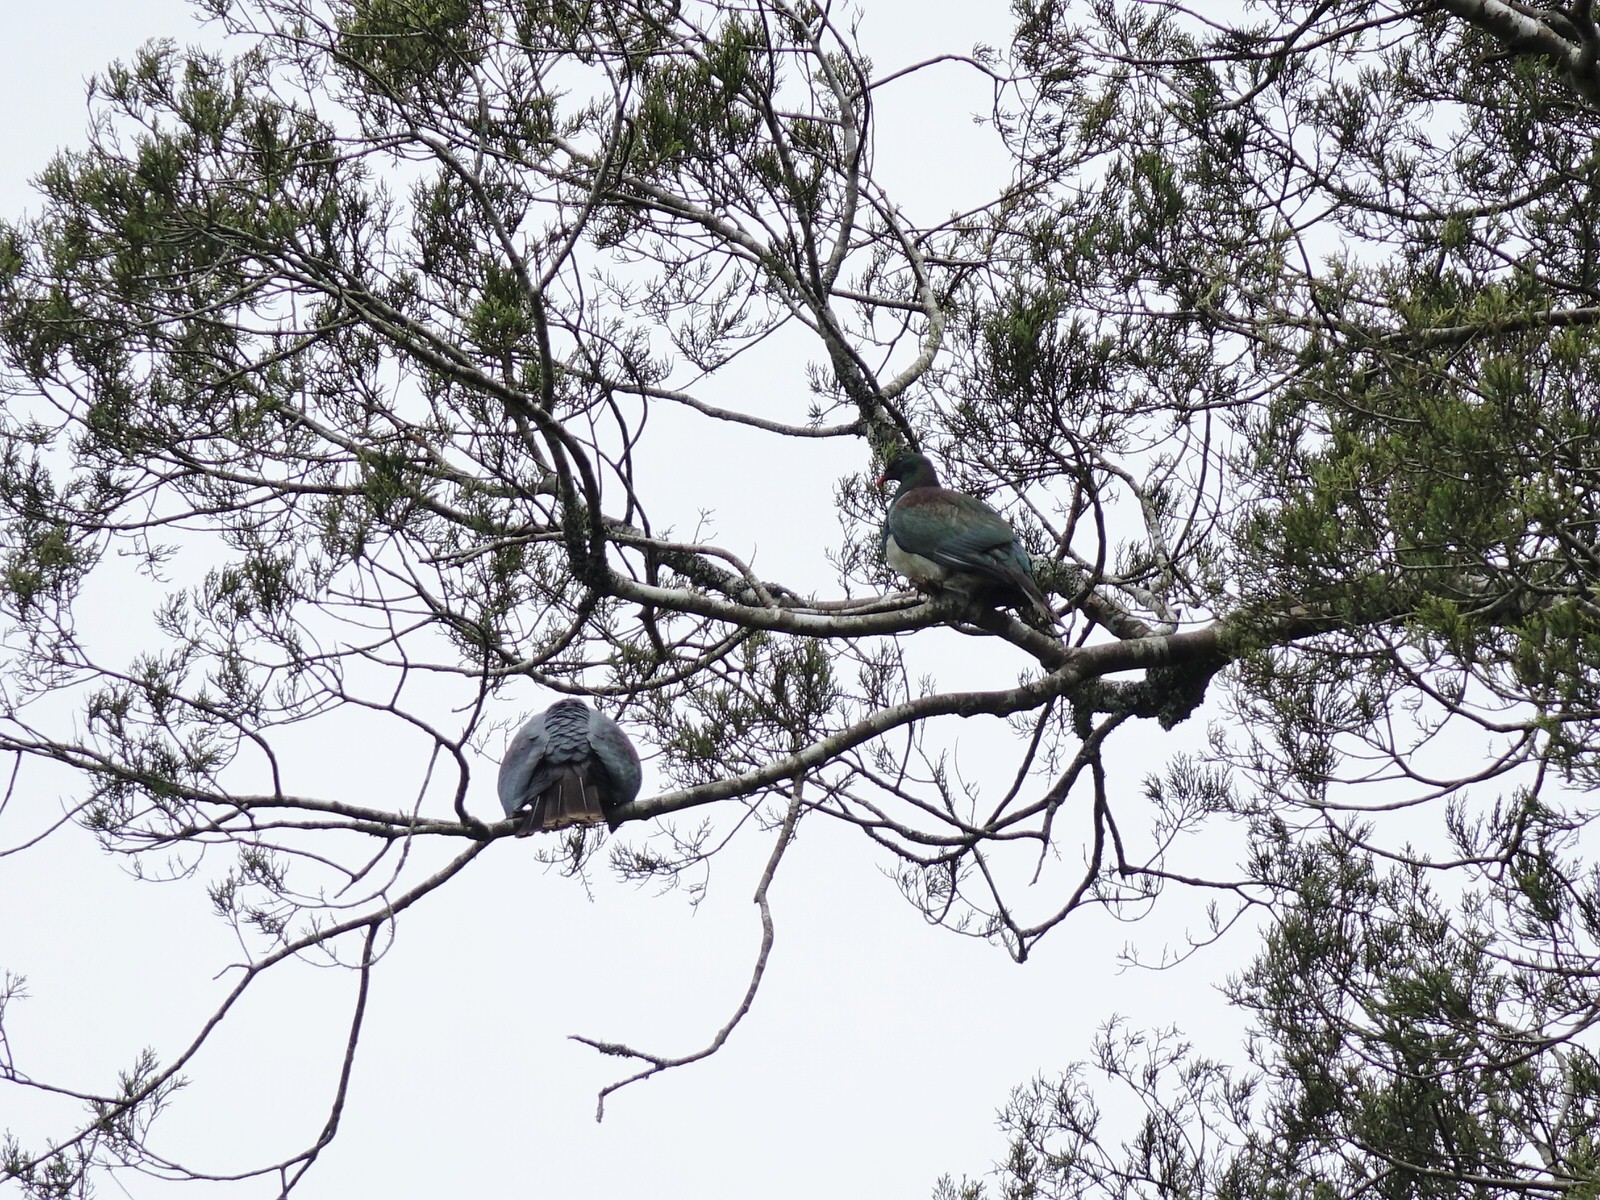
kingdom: Animalia
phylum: Chordata
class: Aves
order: Columbiformes
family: Columbidae
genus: Hemiphaga
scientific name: Hemiphaga novaeseelandiae
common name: New zealand pigeon
